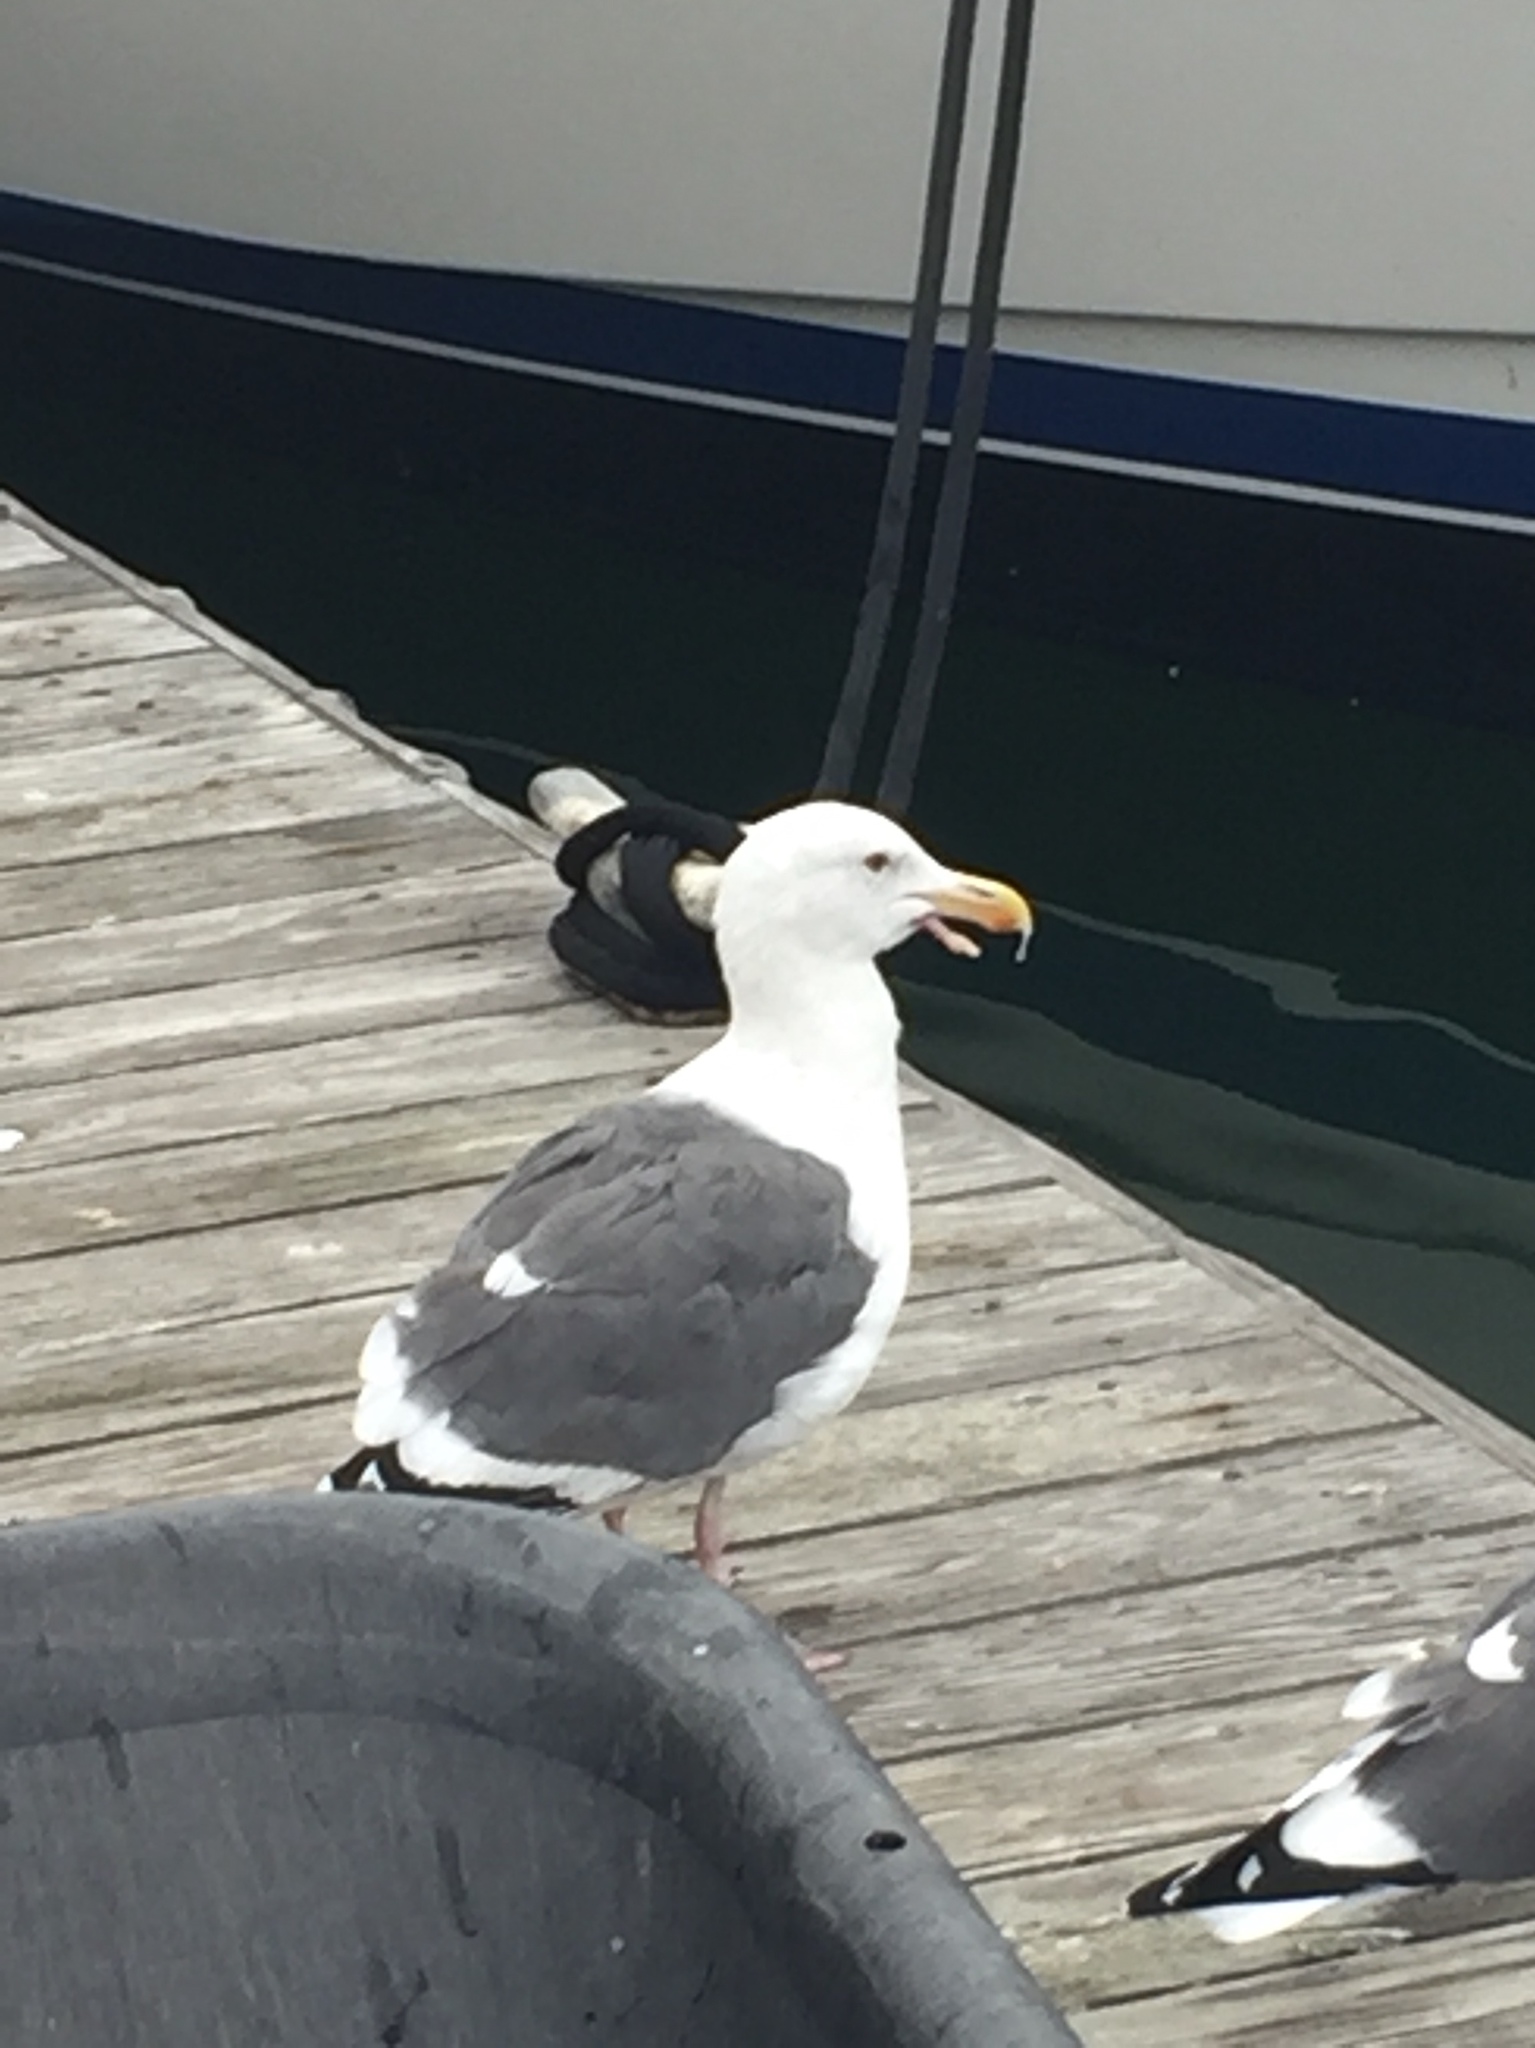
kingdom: Animalia
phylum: Chordata
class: Aves
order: Charadriiformes
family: Laridae
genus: Larus
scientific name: Larus occidentalis
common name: Western gull
